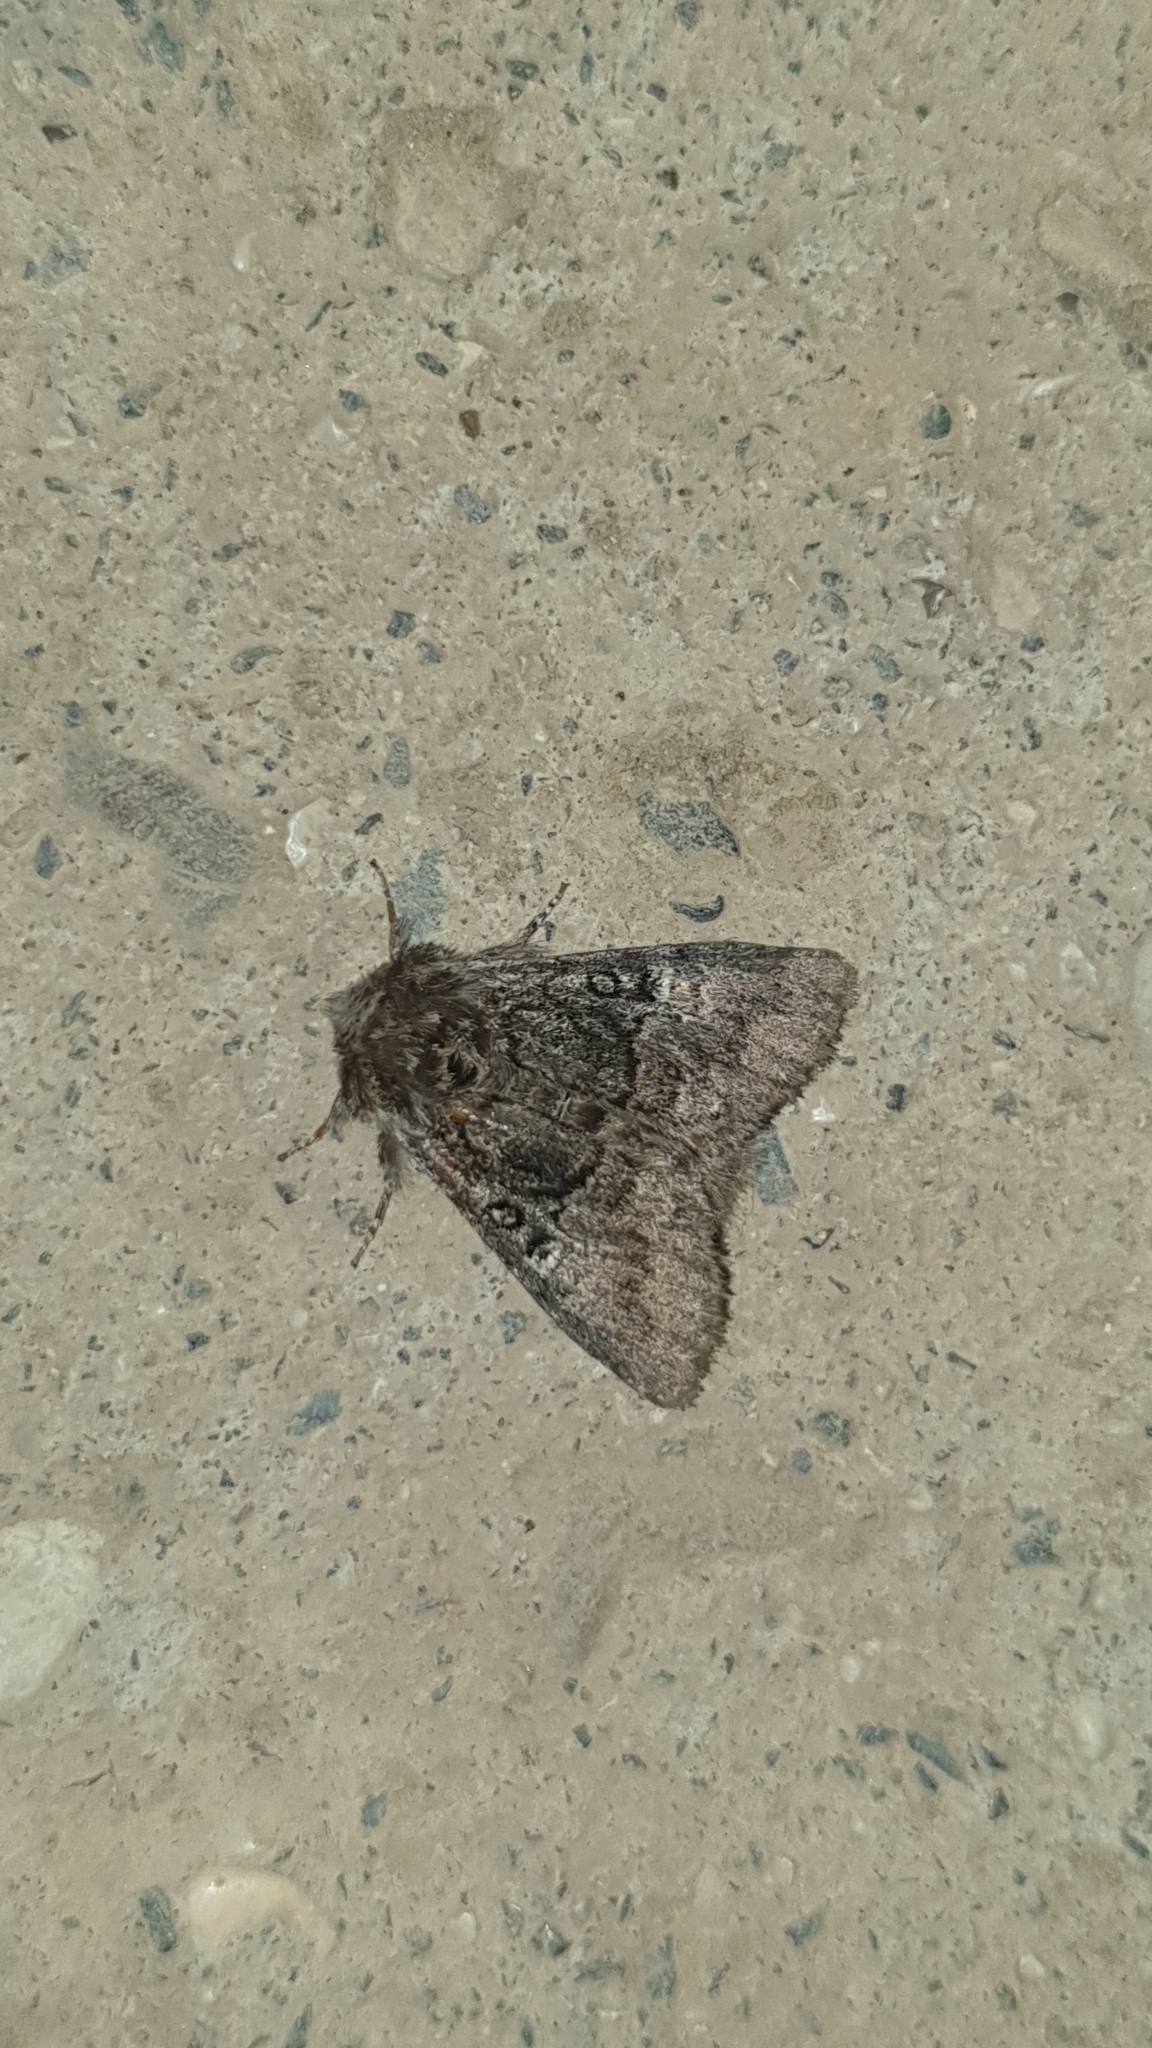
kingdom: Animalia
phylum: Arthropoda
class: Insecta
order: Lepidoptera
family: Noctuidae
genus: Colocasia
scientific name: Colocasia coryli
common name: Nut-tree tussock
